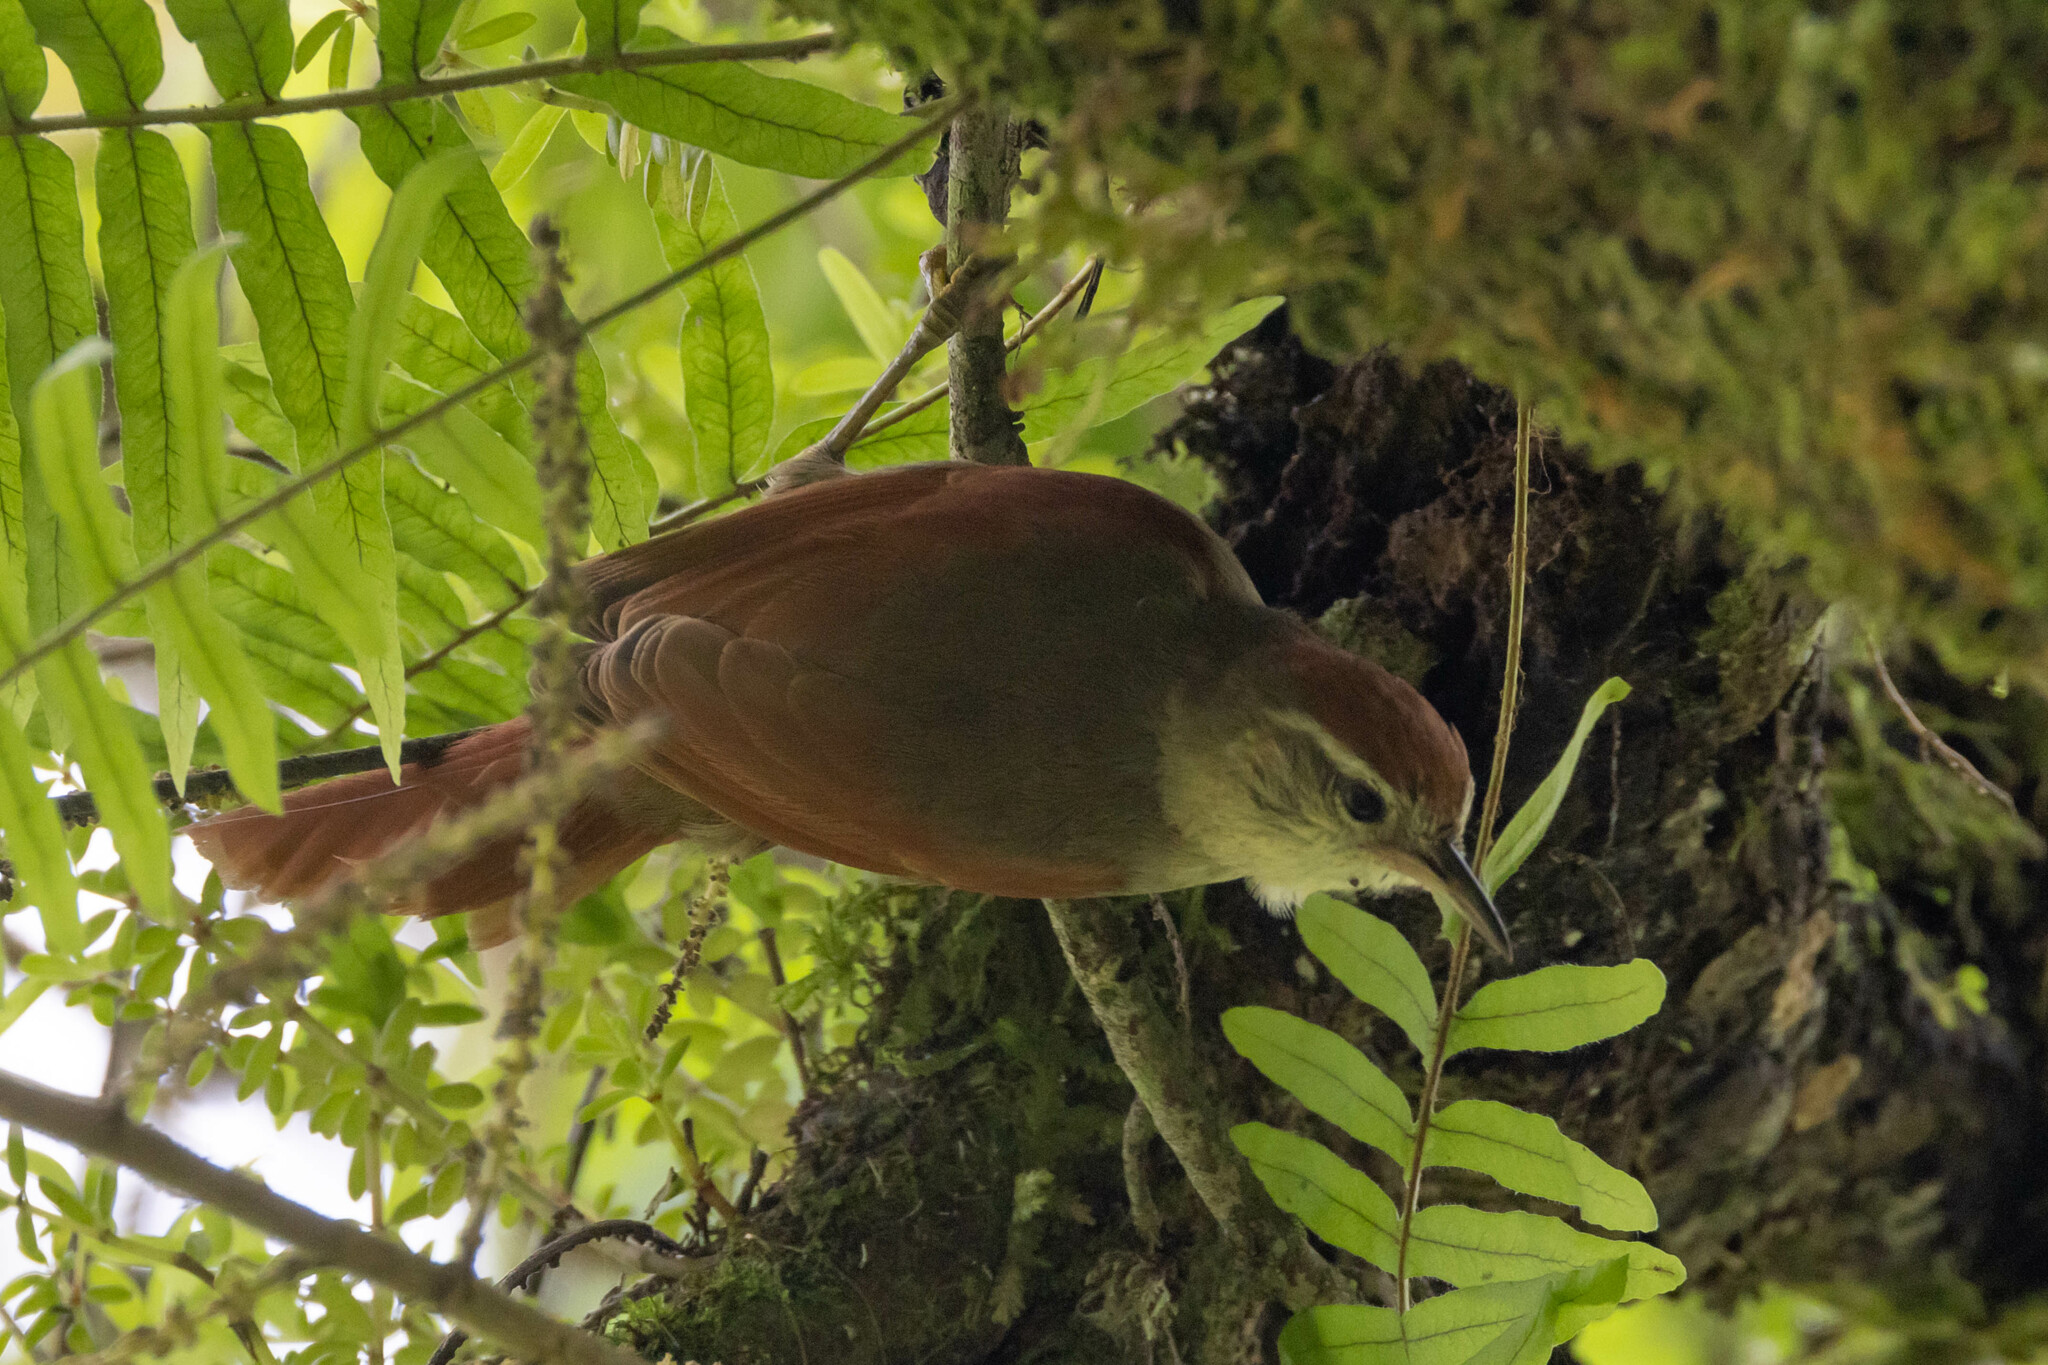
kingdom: Animalia
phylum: Chordata
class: Aves
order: Passeriformes
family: Furnariidae
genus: Cranioleuca
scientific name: Cranioleuca antisiensis
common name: Line-cheeked spinetail
